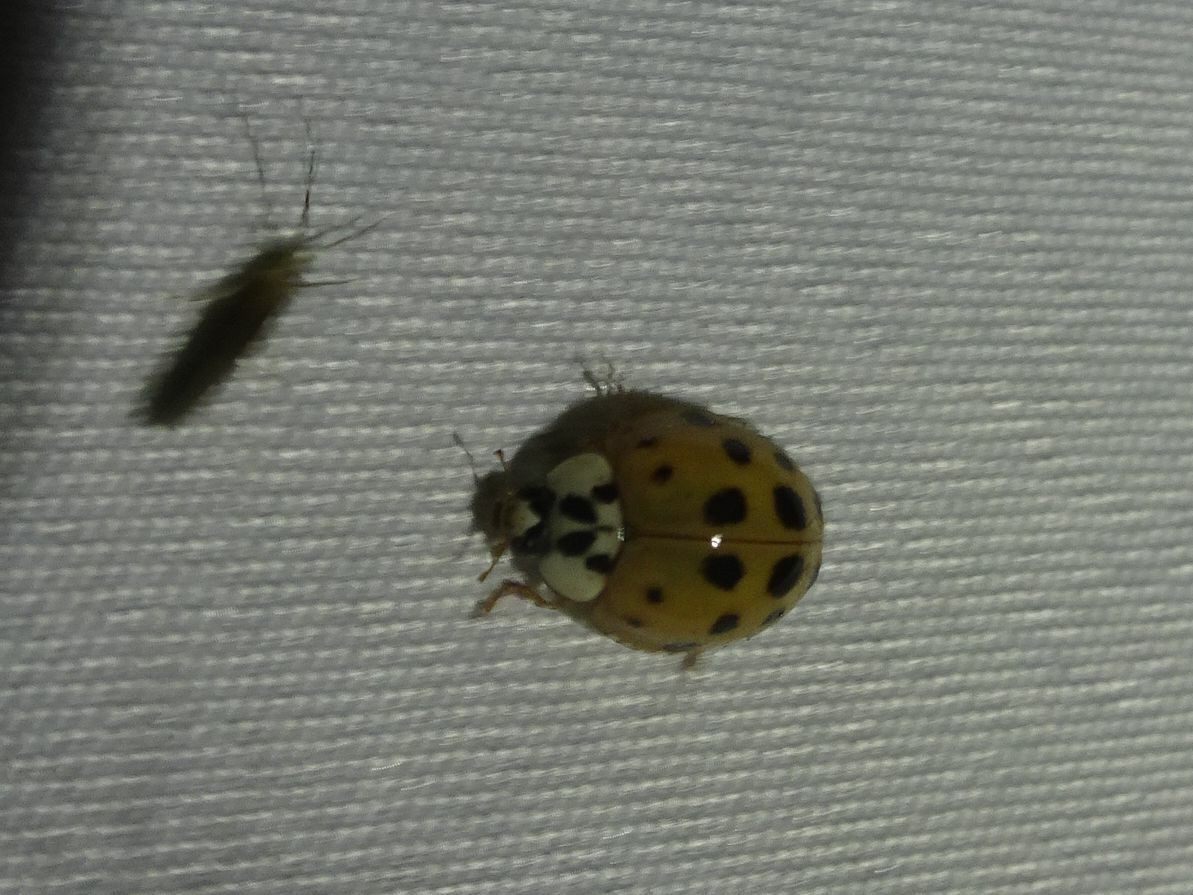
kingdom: Animalia
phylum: Arthropoda
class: Insecta
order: Coleoptera
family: Coccinellidae
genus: Harmonia
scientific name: Harmonia axyridis
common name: Harlequin ladybird
